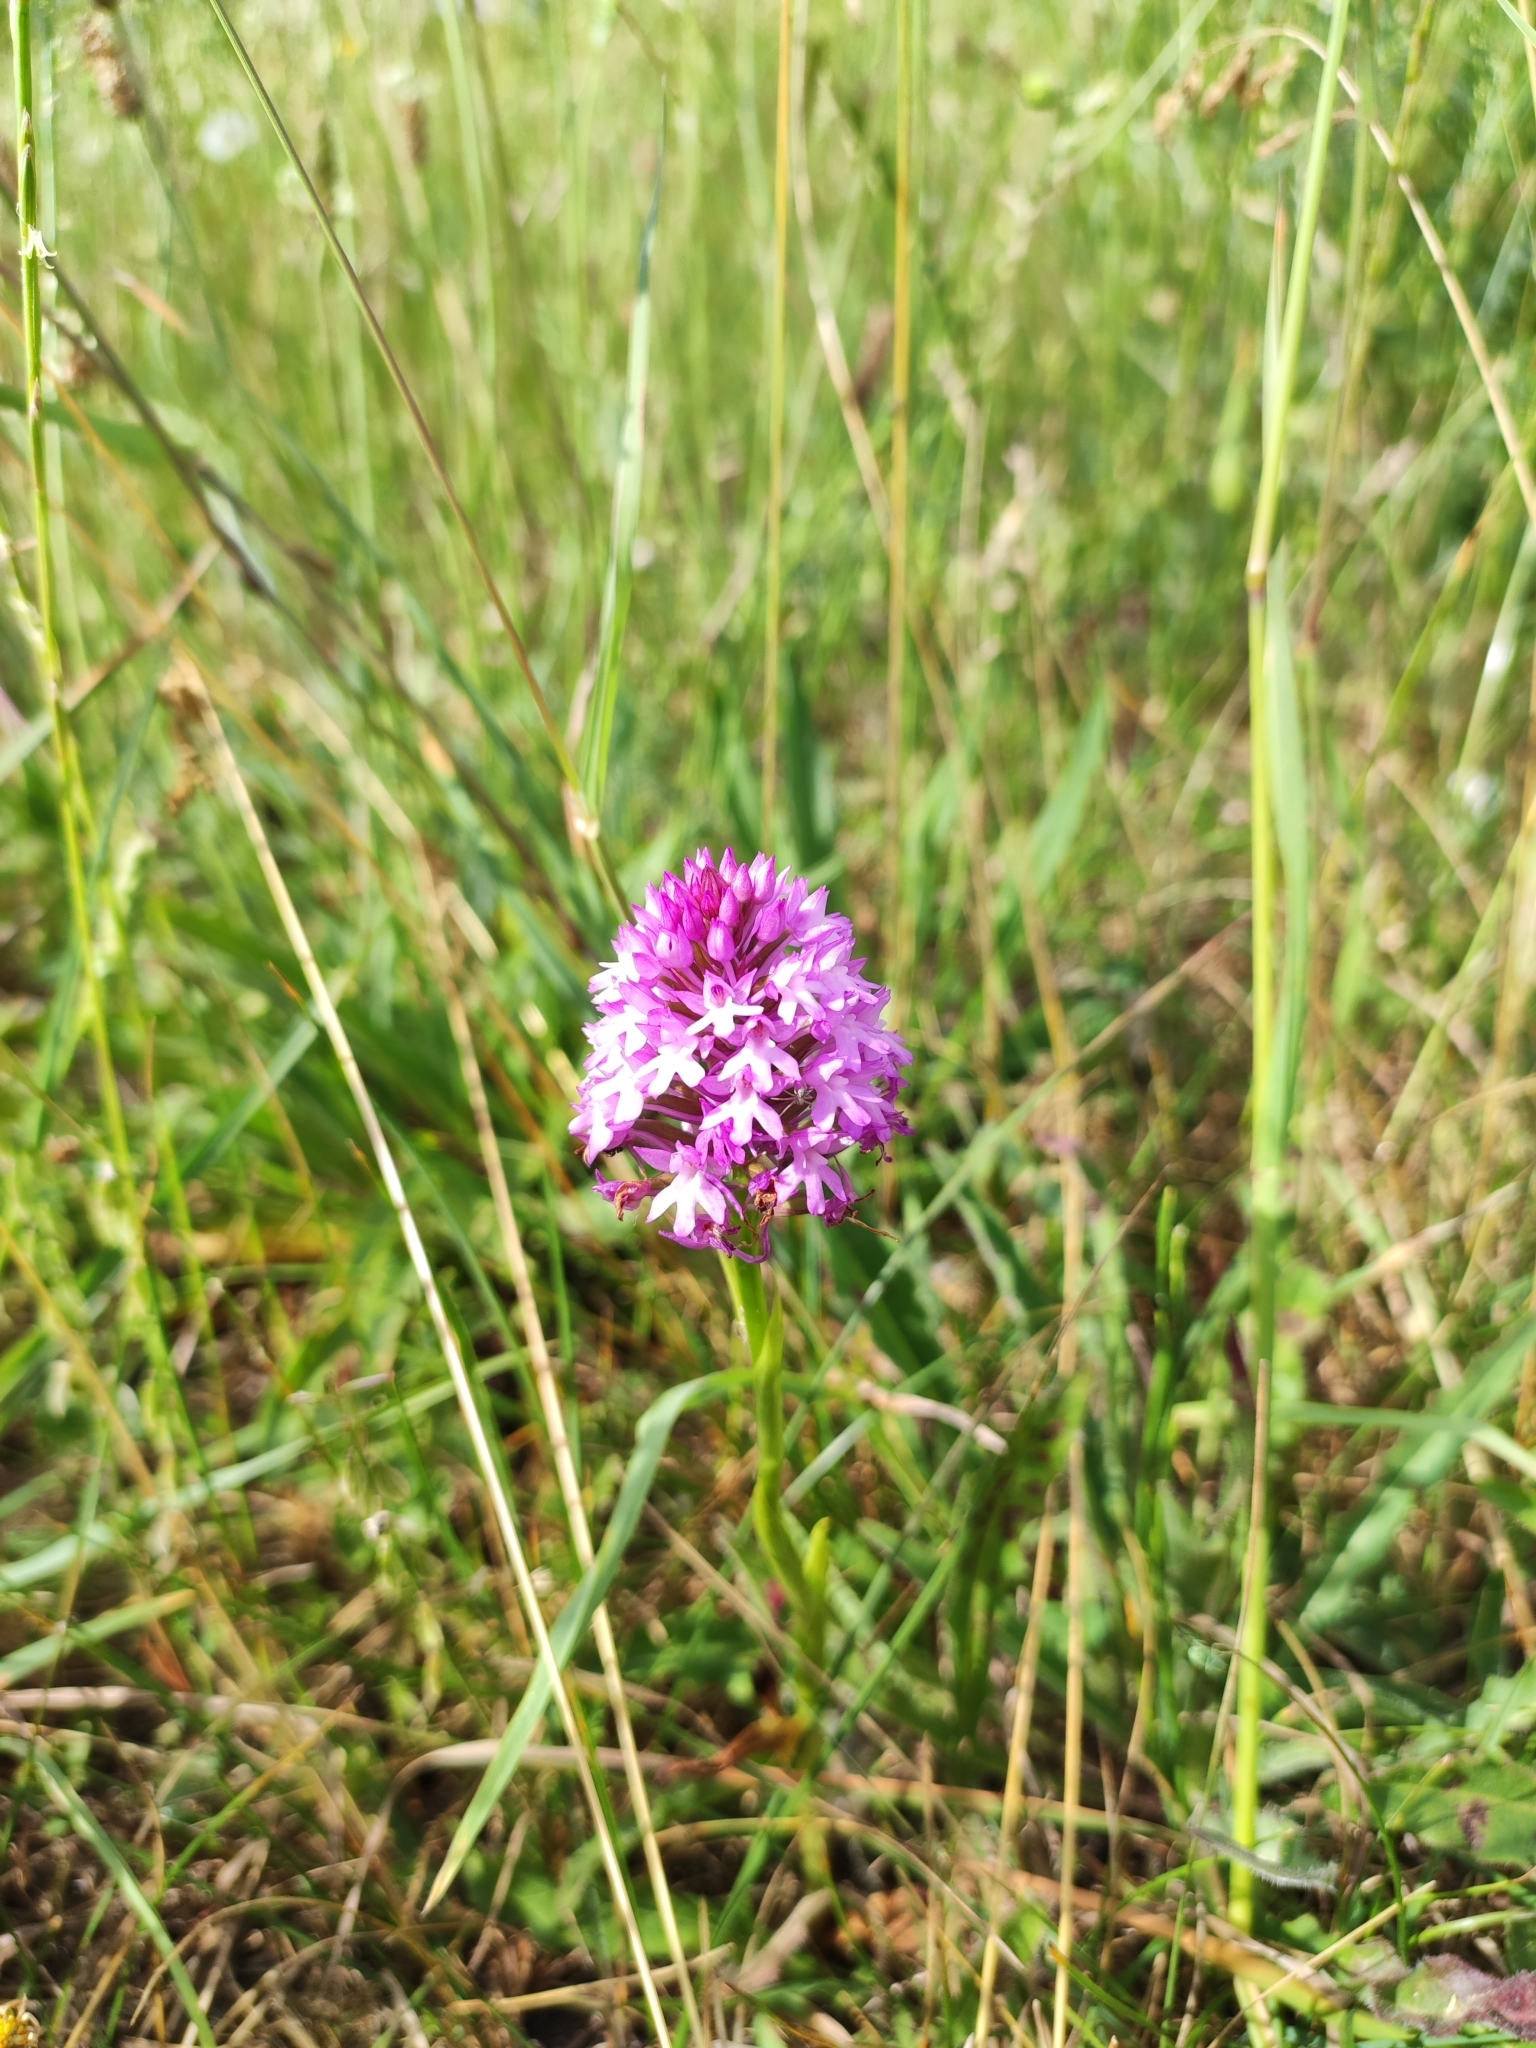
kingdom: Plantae
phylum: Tracheophyta
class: Liliopsida
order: Asparagales
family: Orchidaceae
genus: Anacamptis
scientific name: Anacamptis pyramidalis
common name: Pyramidal orchid
